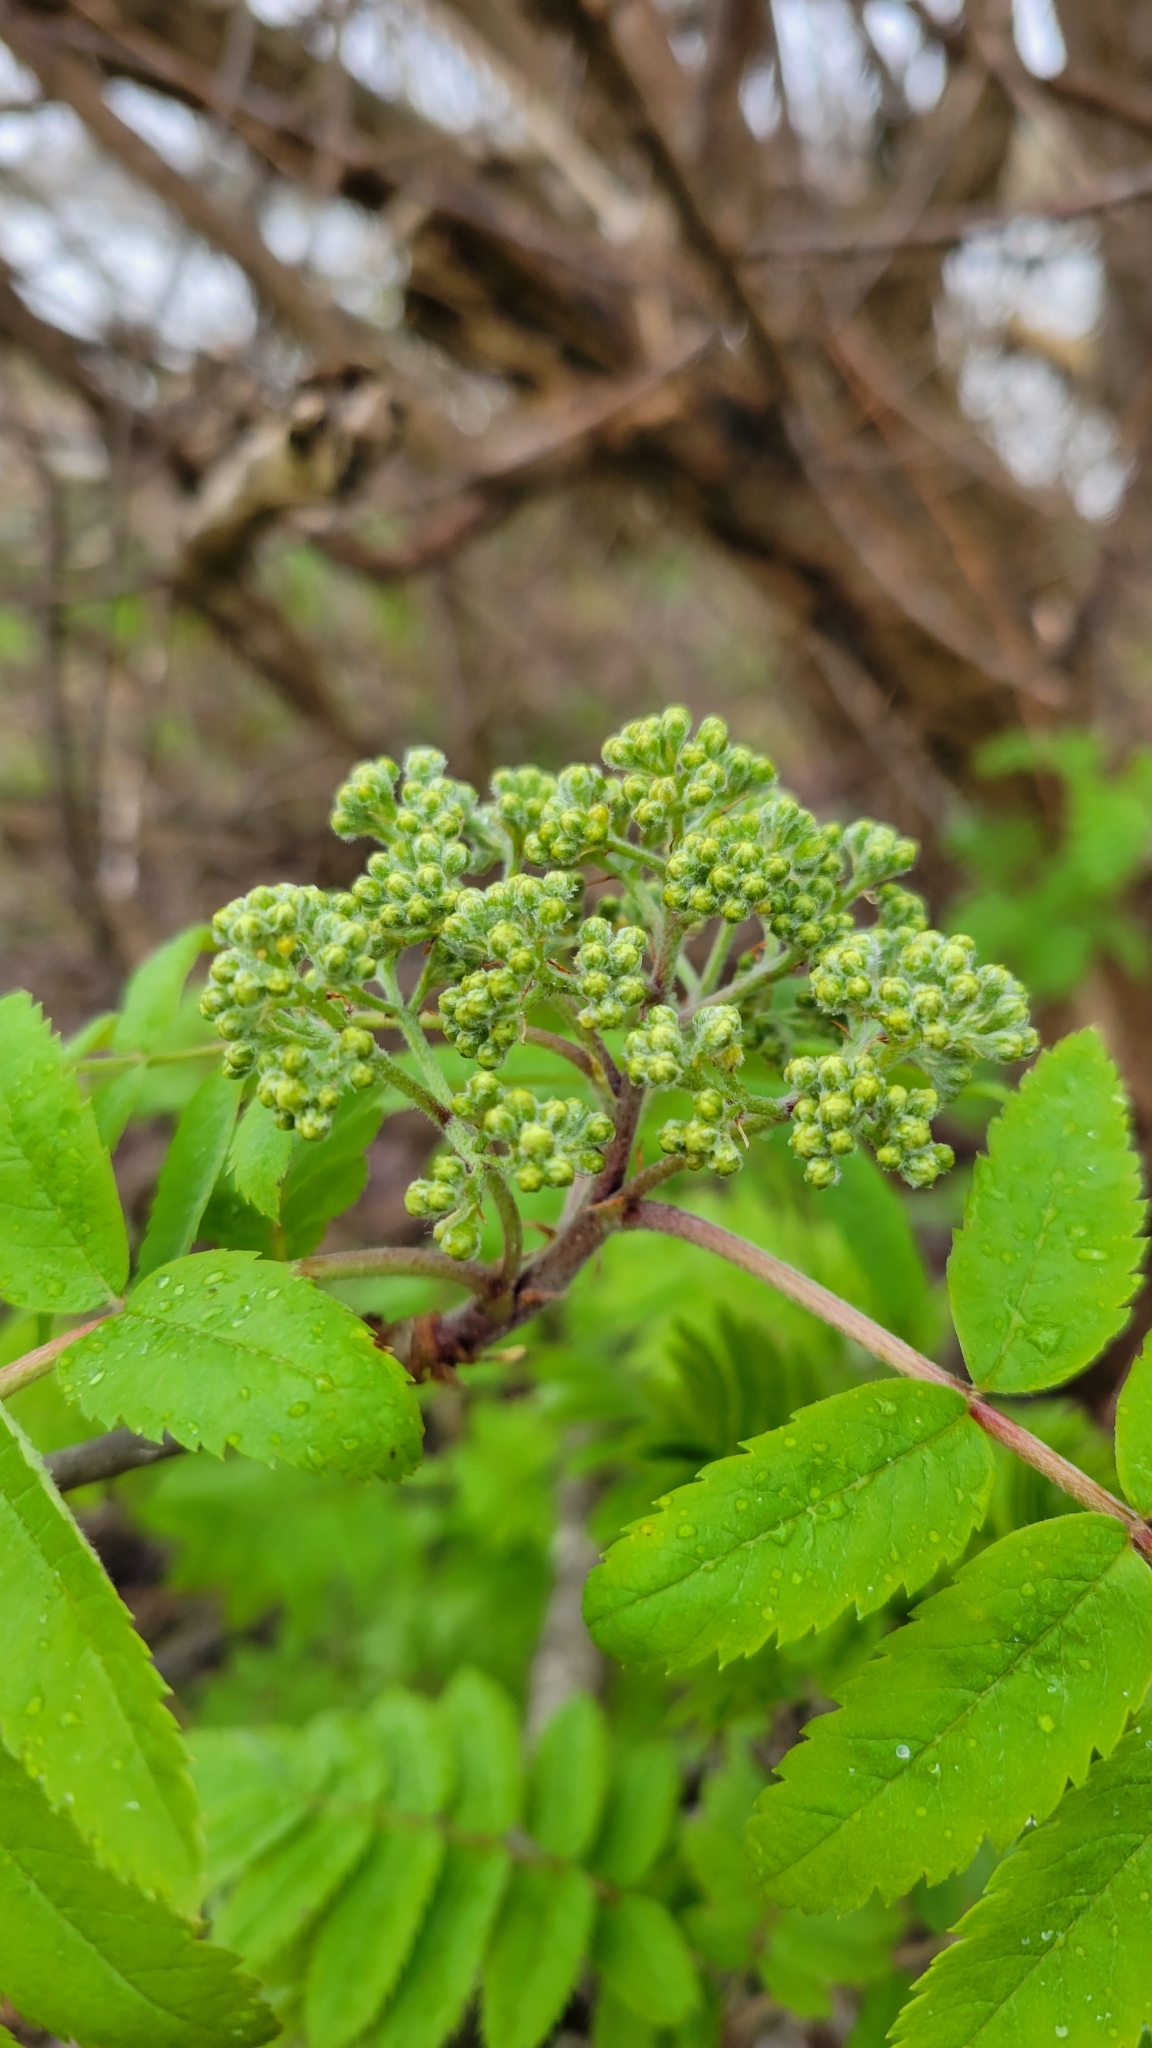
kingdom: Plantae
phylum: Tracheophyta
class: Magnoliopsida
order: Rosales
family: Rosaceae
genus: Sorbus
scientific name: Sorbus aucuparia
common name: Rowan
